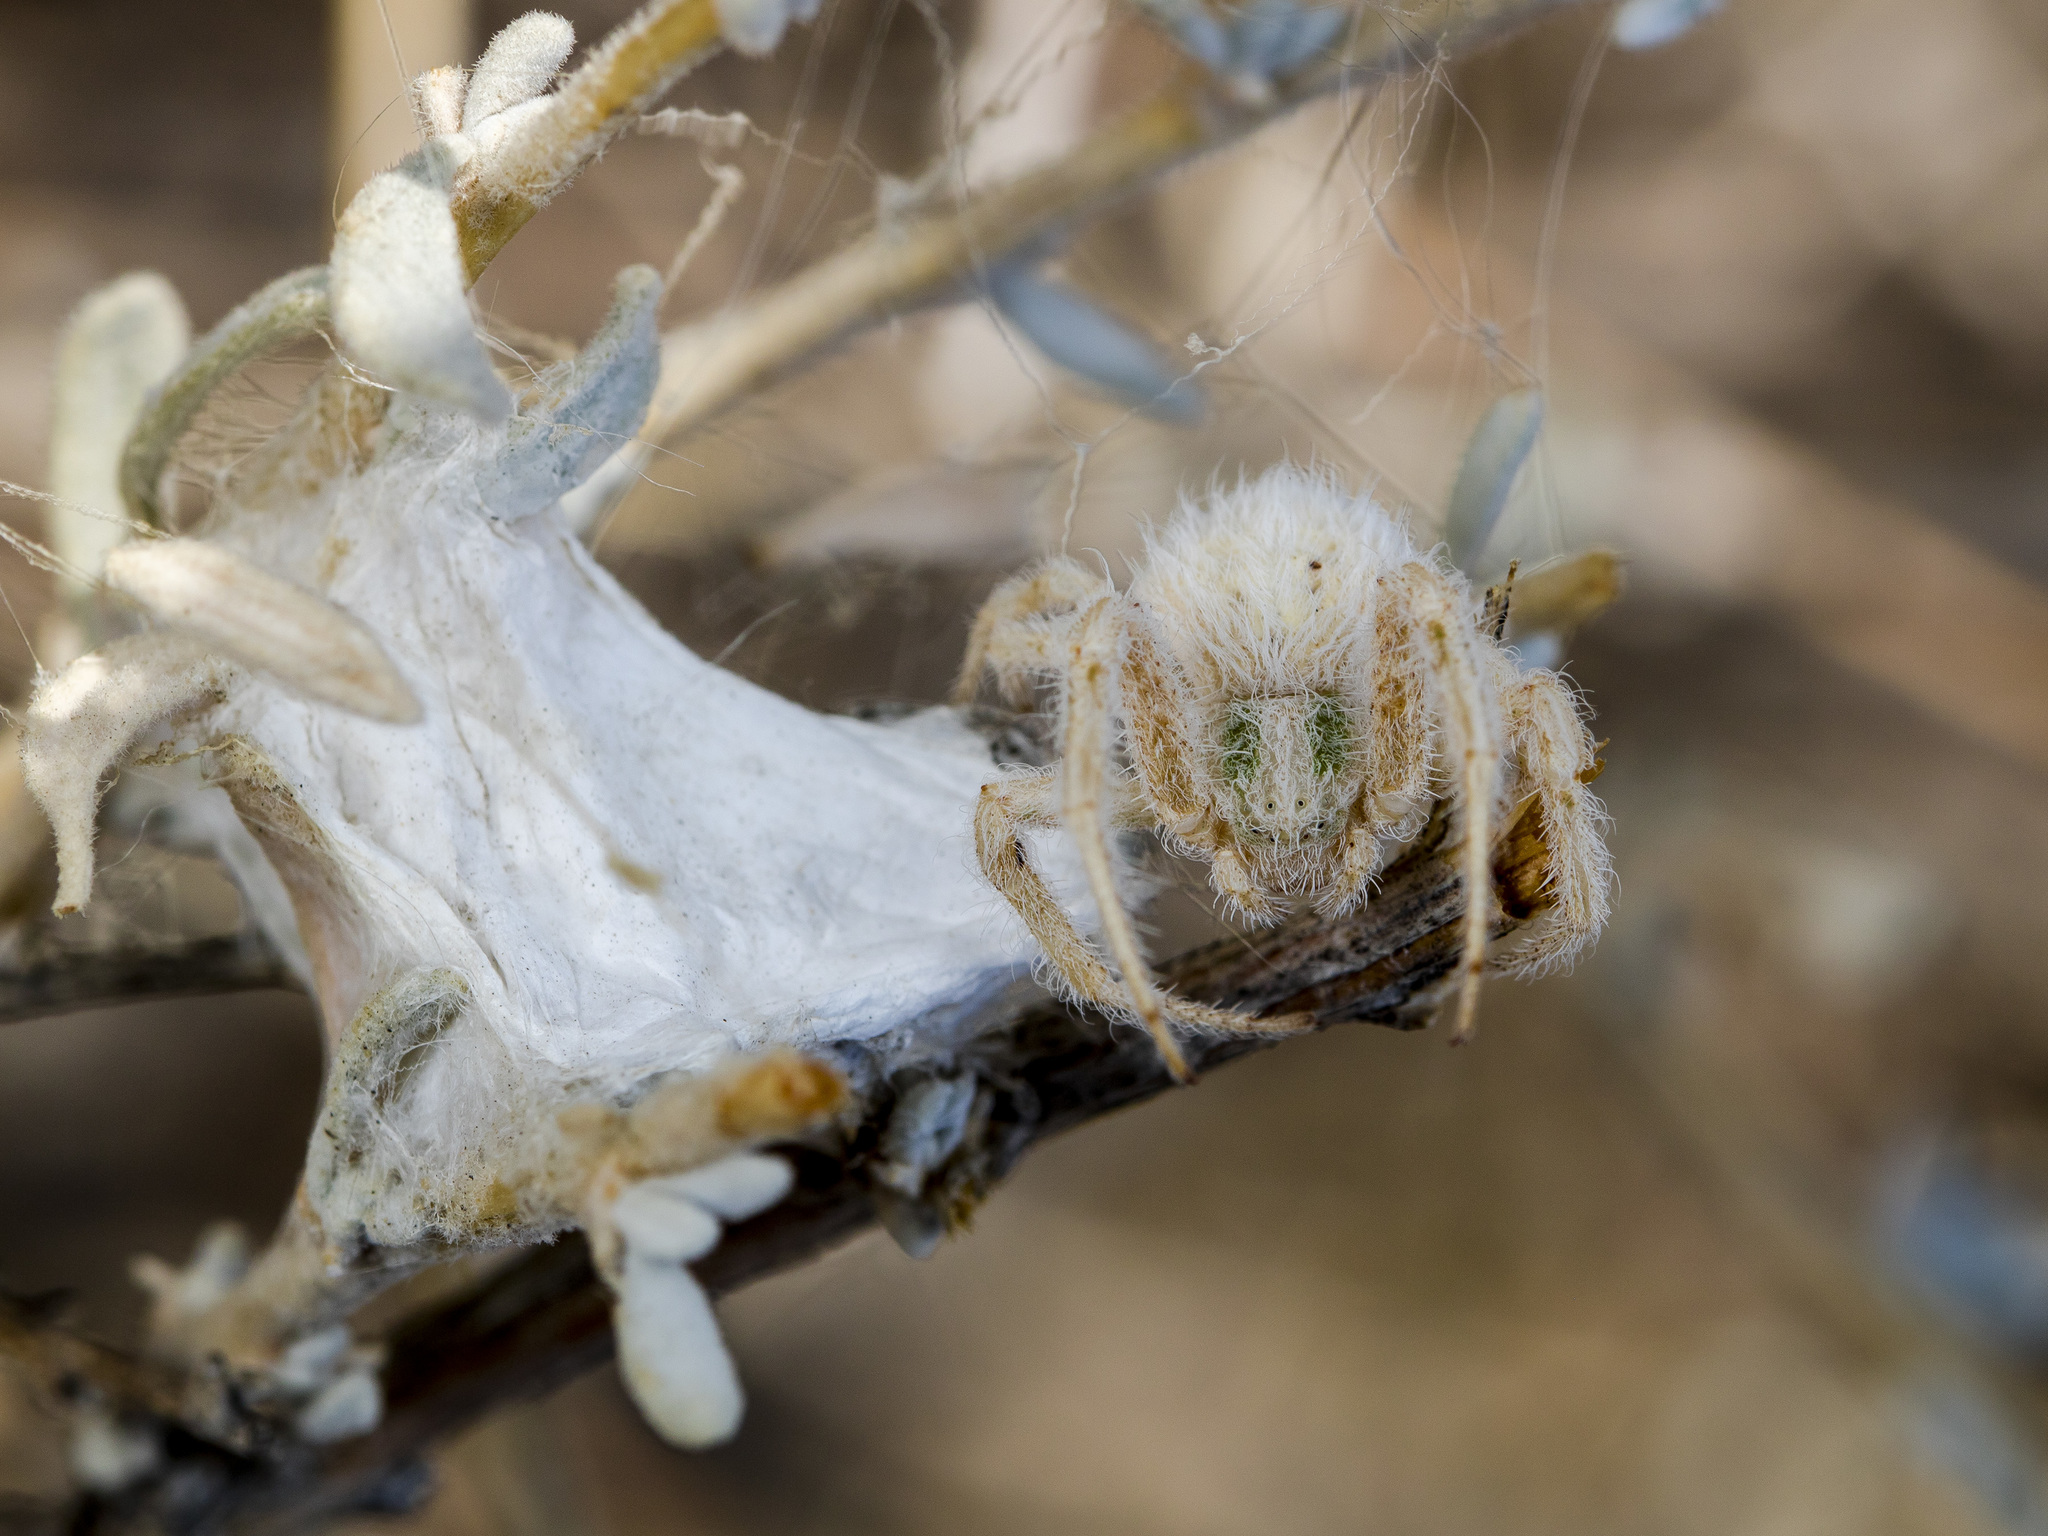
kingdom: Animalia
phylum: Arthropoda
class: Arachnida
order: Araneae
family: Thomisidae
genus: Heriaeus
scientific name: Heriaeus horridus
